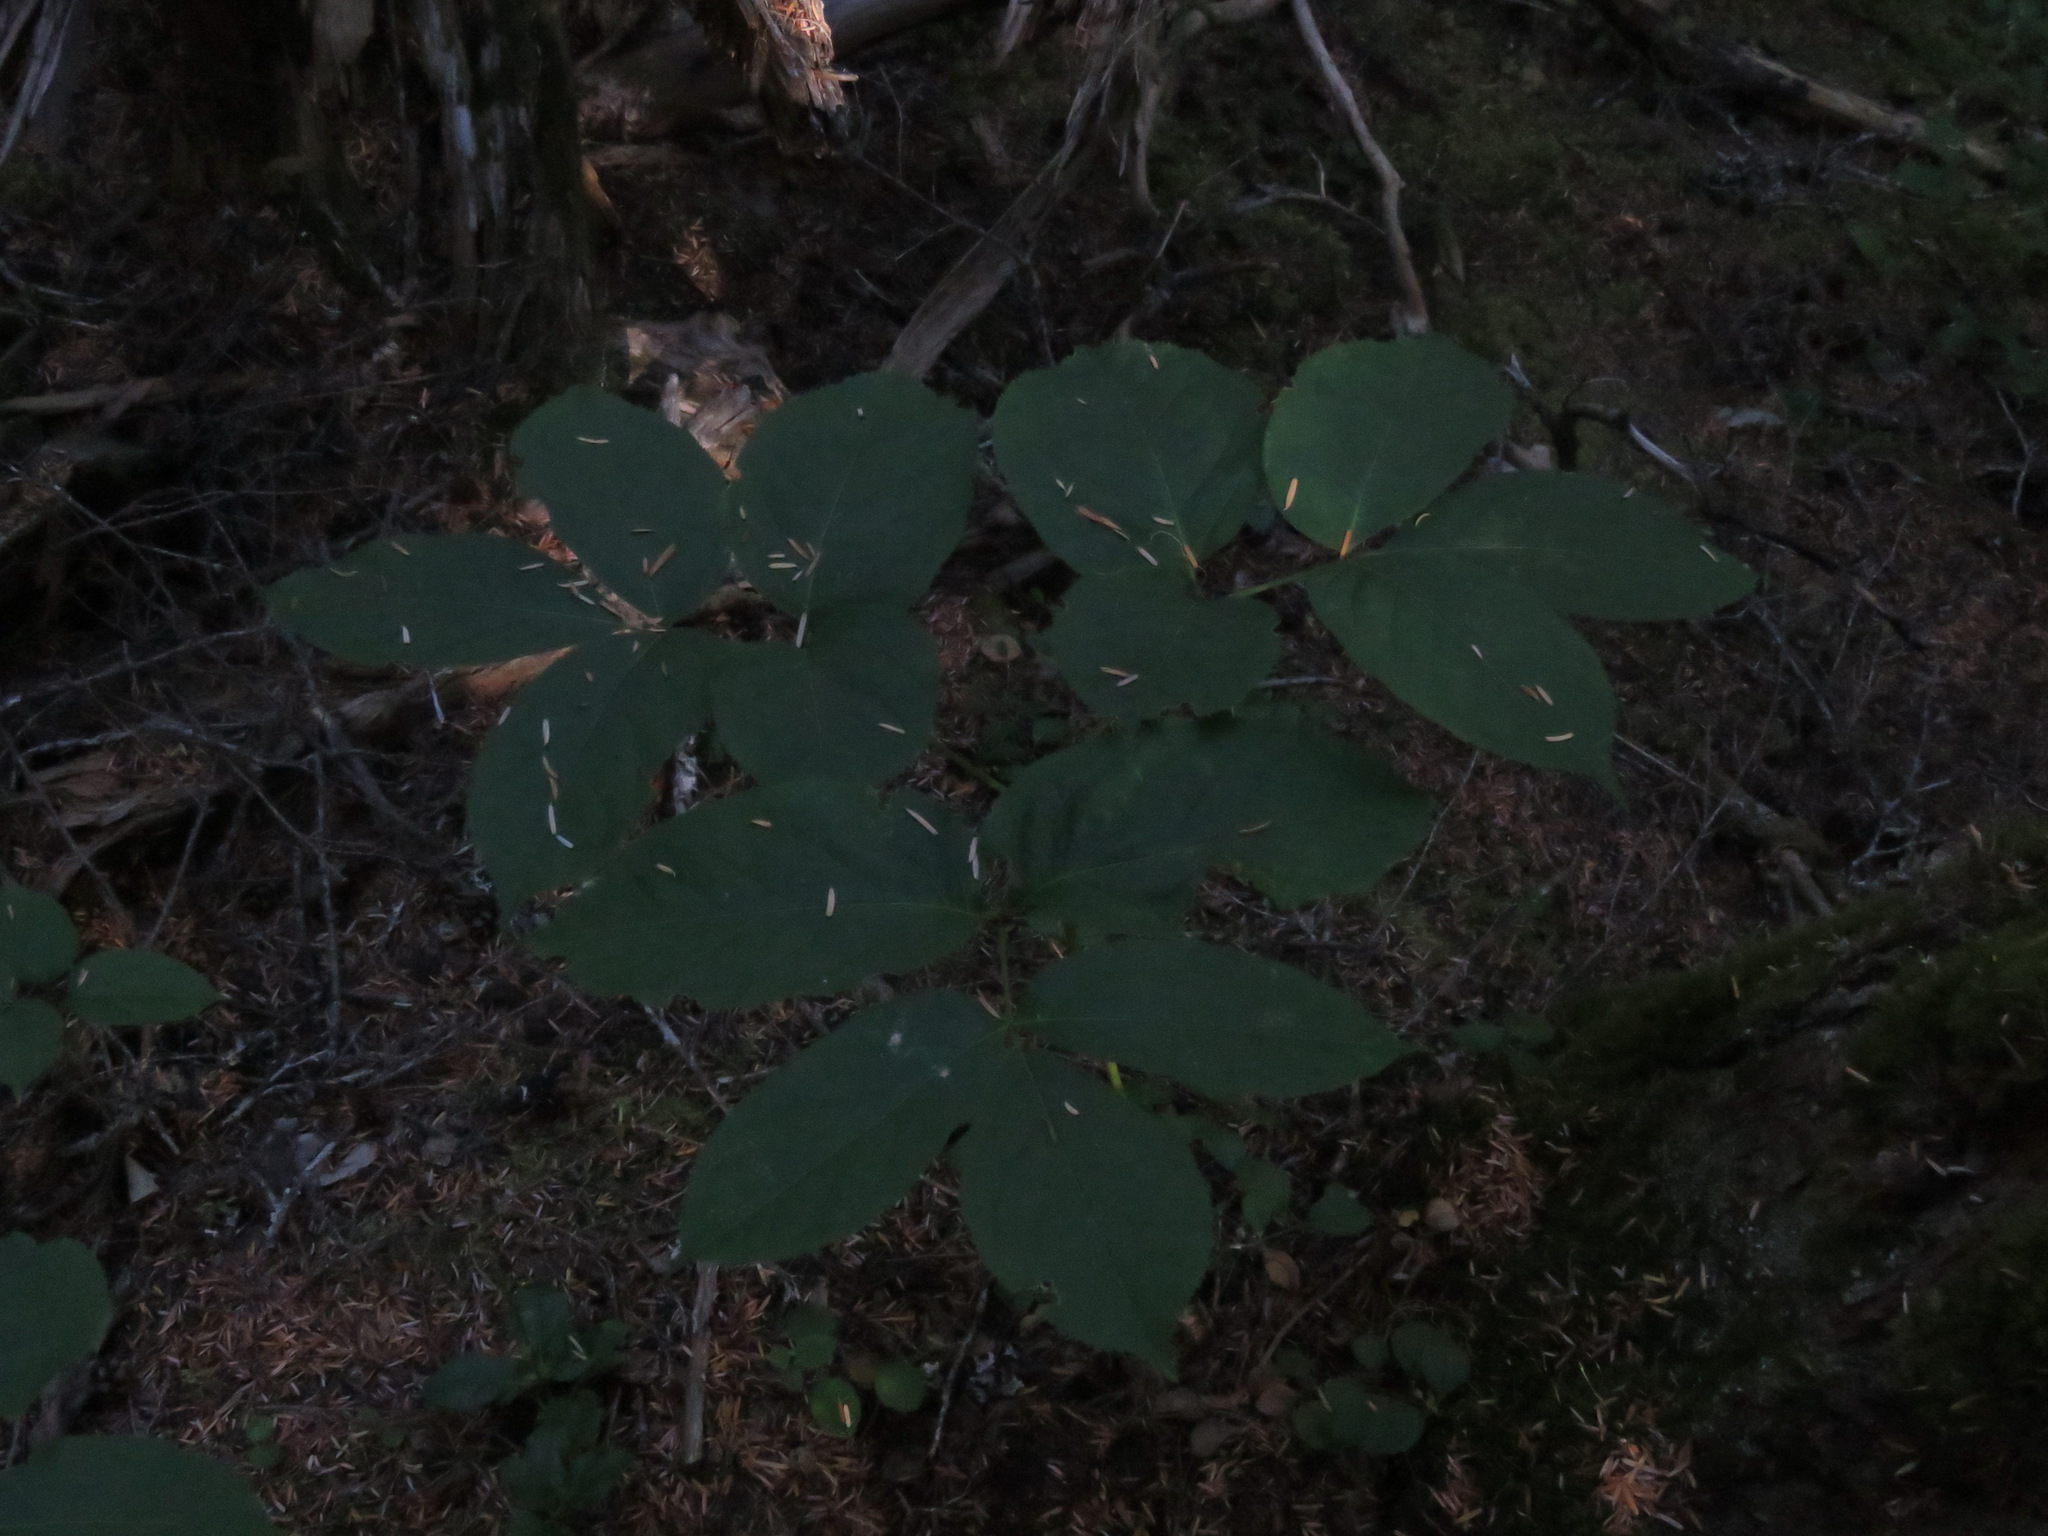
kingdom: Plantae
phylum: Tracheophyta
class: Magnoliopsida
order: Apiales
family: Araliaceae
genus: Aralia
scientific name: Aralia nudicaulis
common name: Wild sarsaparilla
